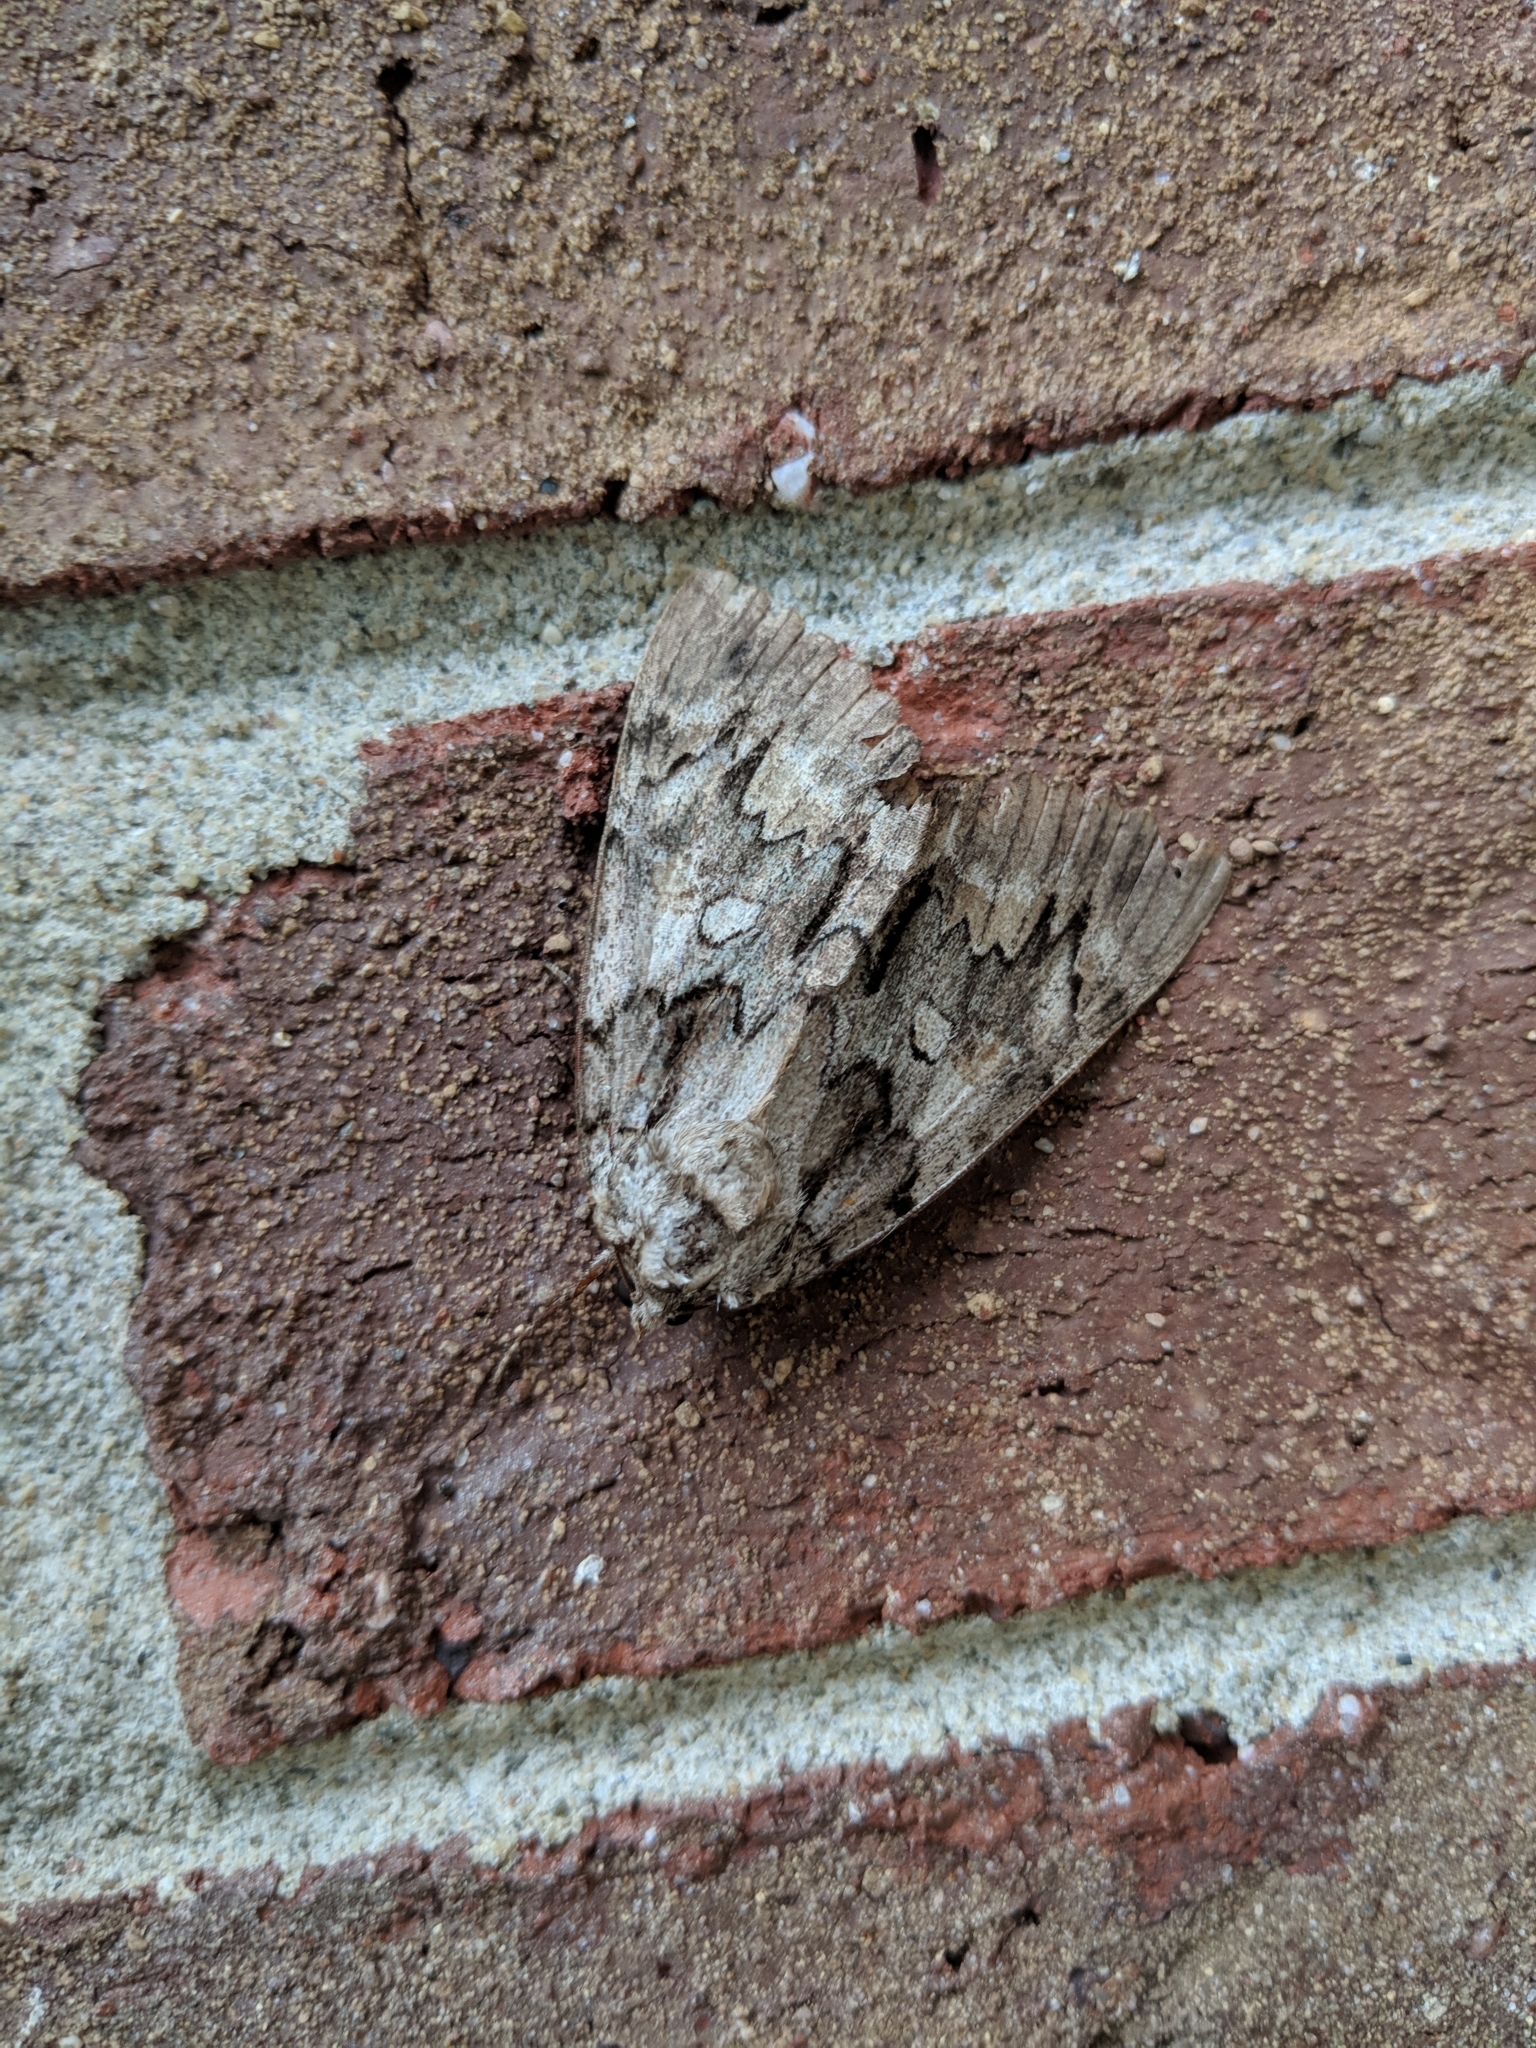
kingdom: Animalia
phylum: Arthropoda
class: Insecta
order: Lepidoptera
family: Erebidae
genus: Catocala
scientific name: Catocala piatrix
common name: The penitent underwing
